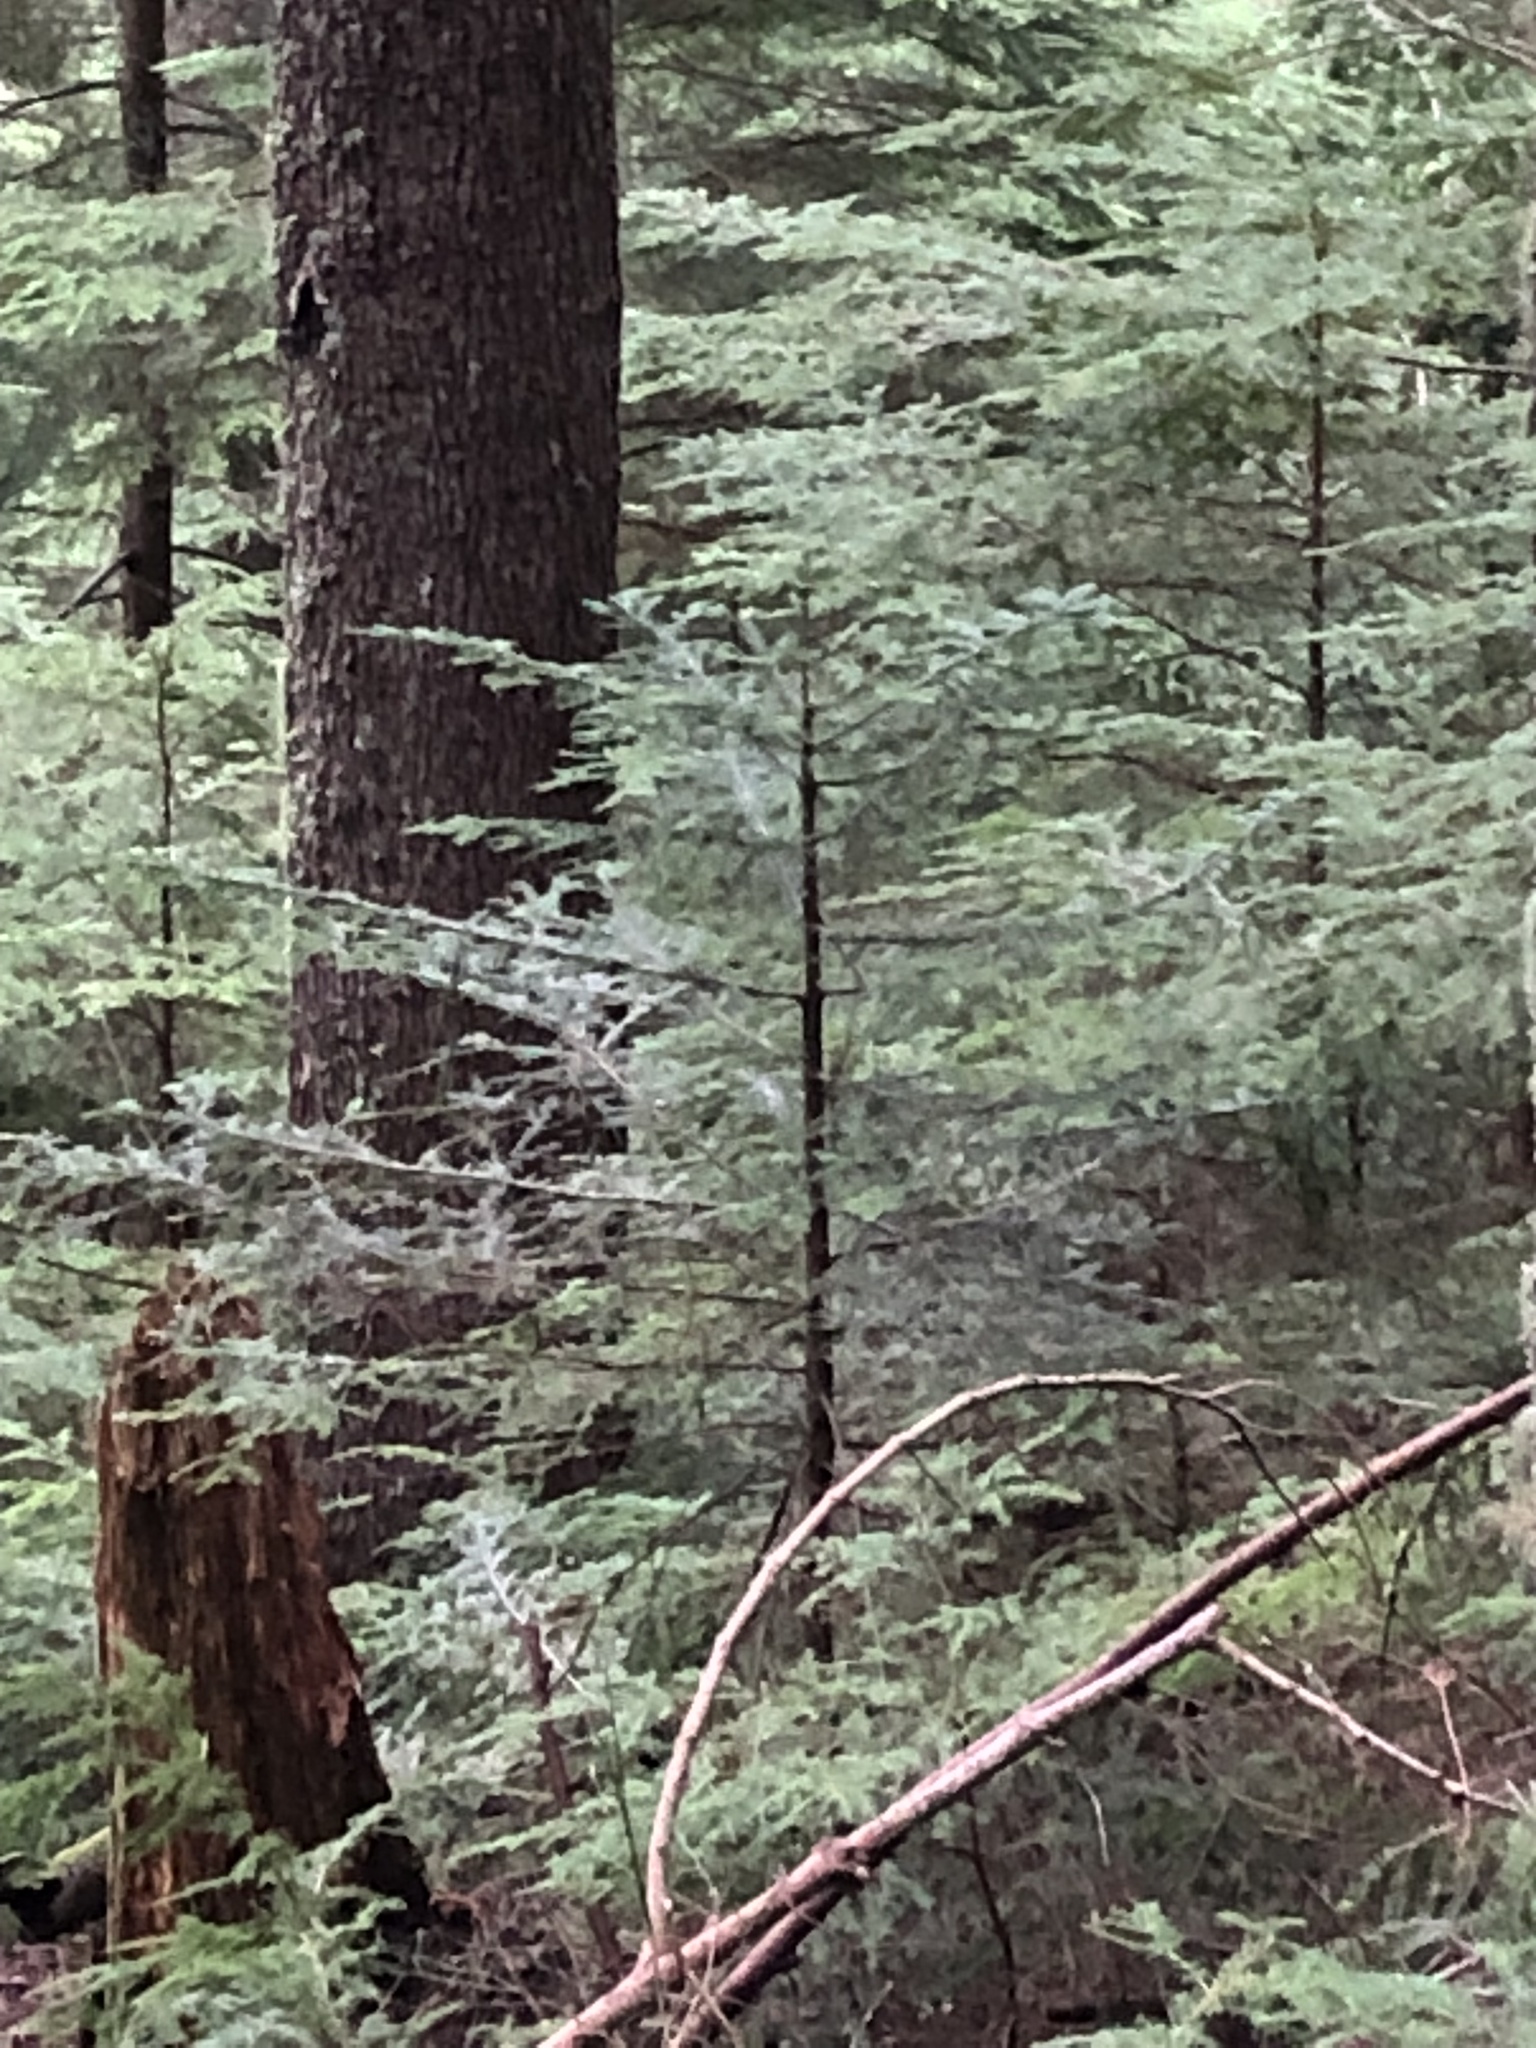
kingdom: Plantae
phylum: Tracheophyta
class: Pinopsida
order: Pinales
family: Pinaceae
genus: Abies
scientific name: Abies amabilis
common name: Pacific silver fir
